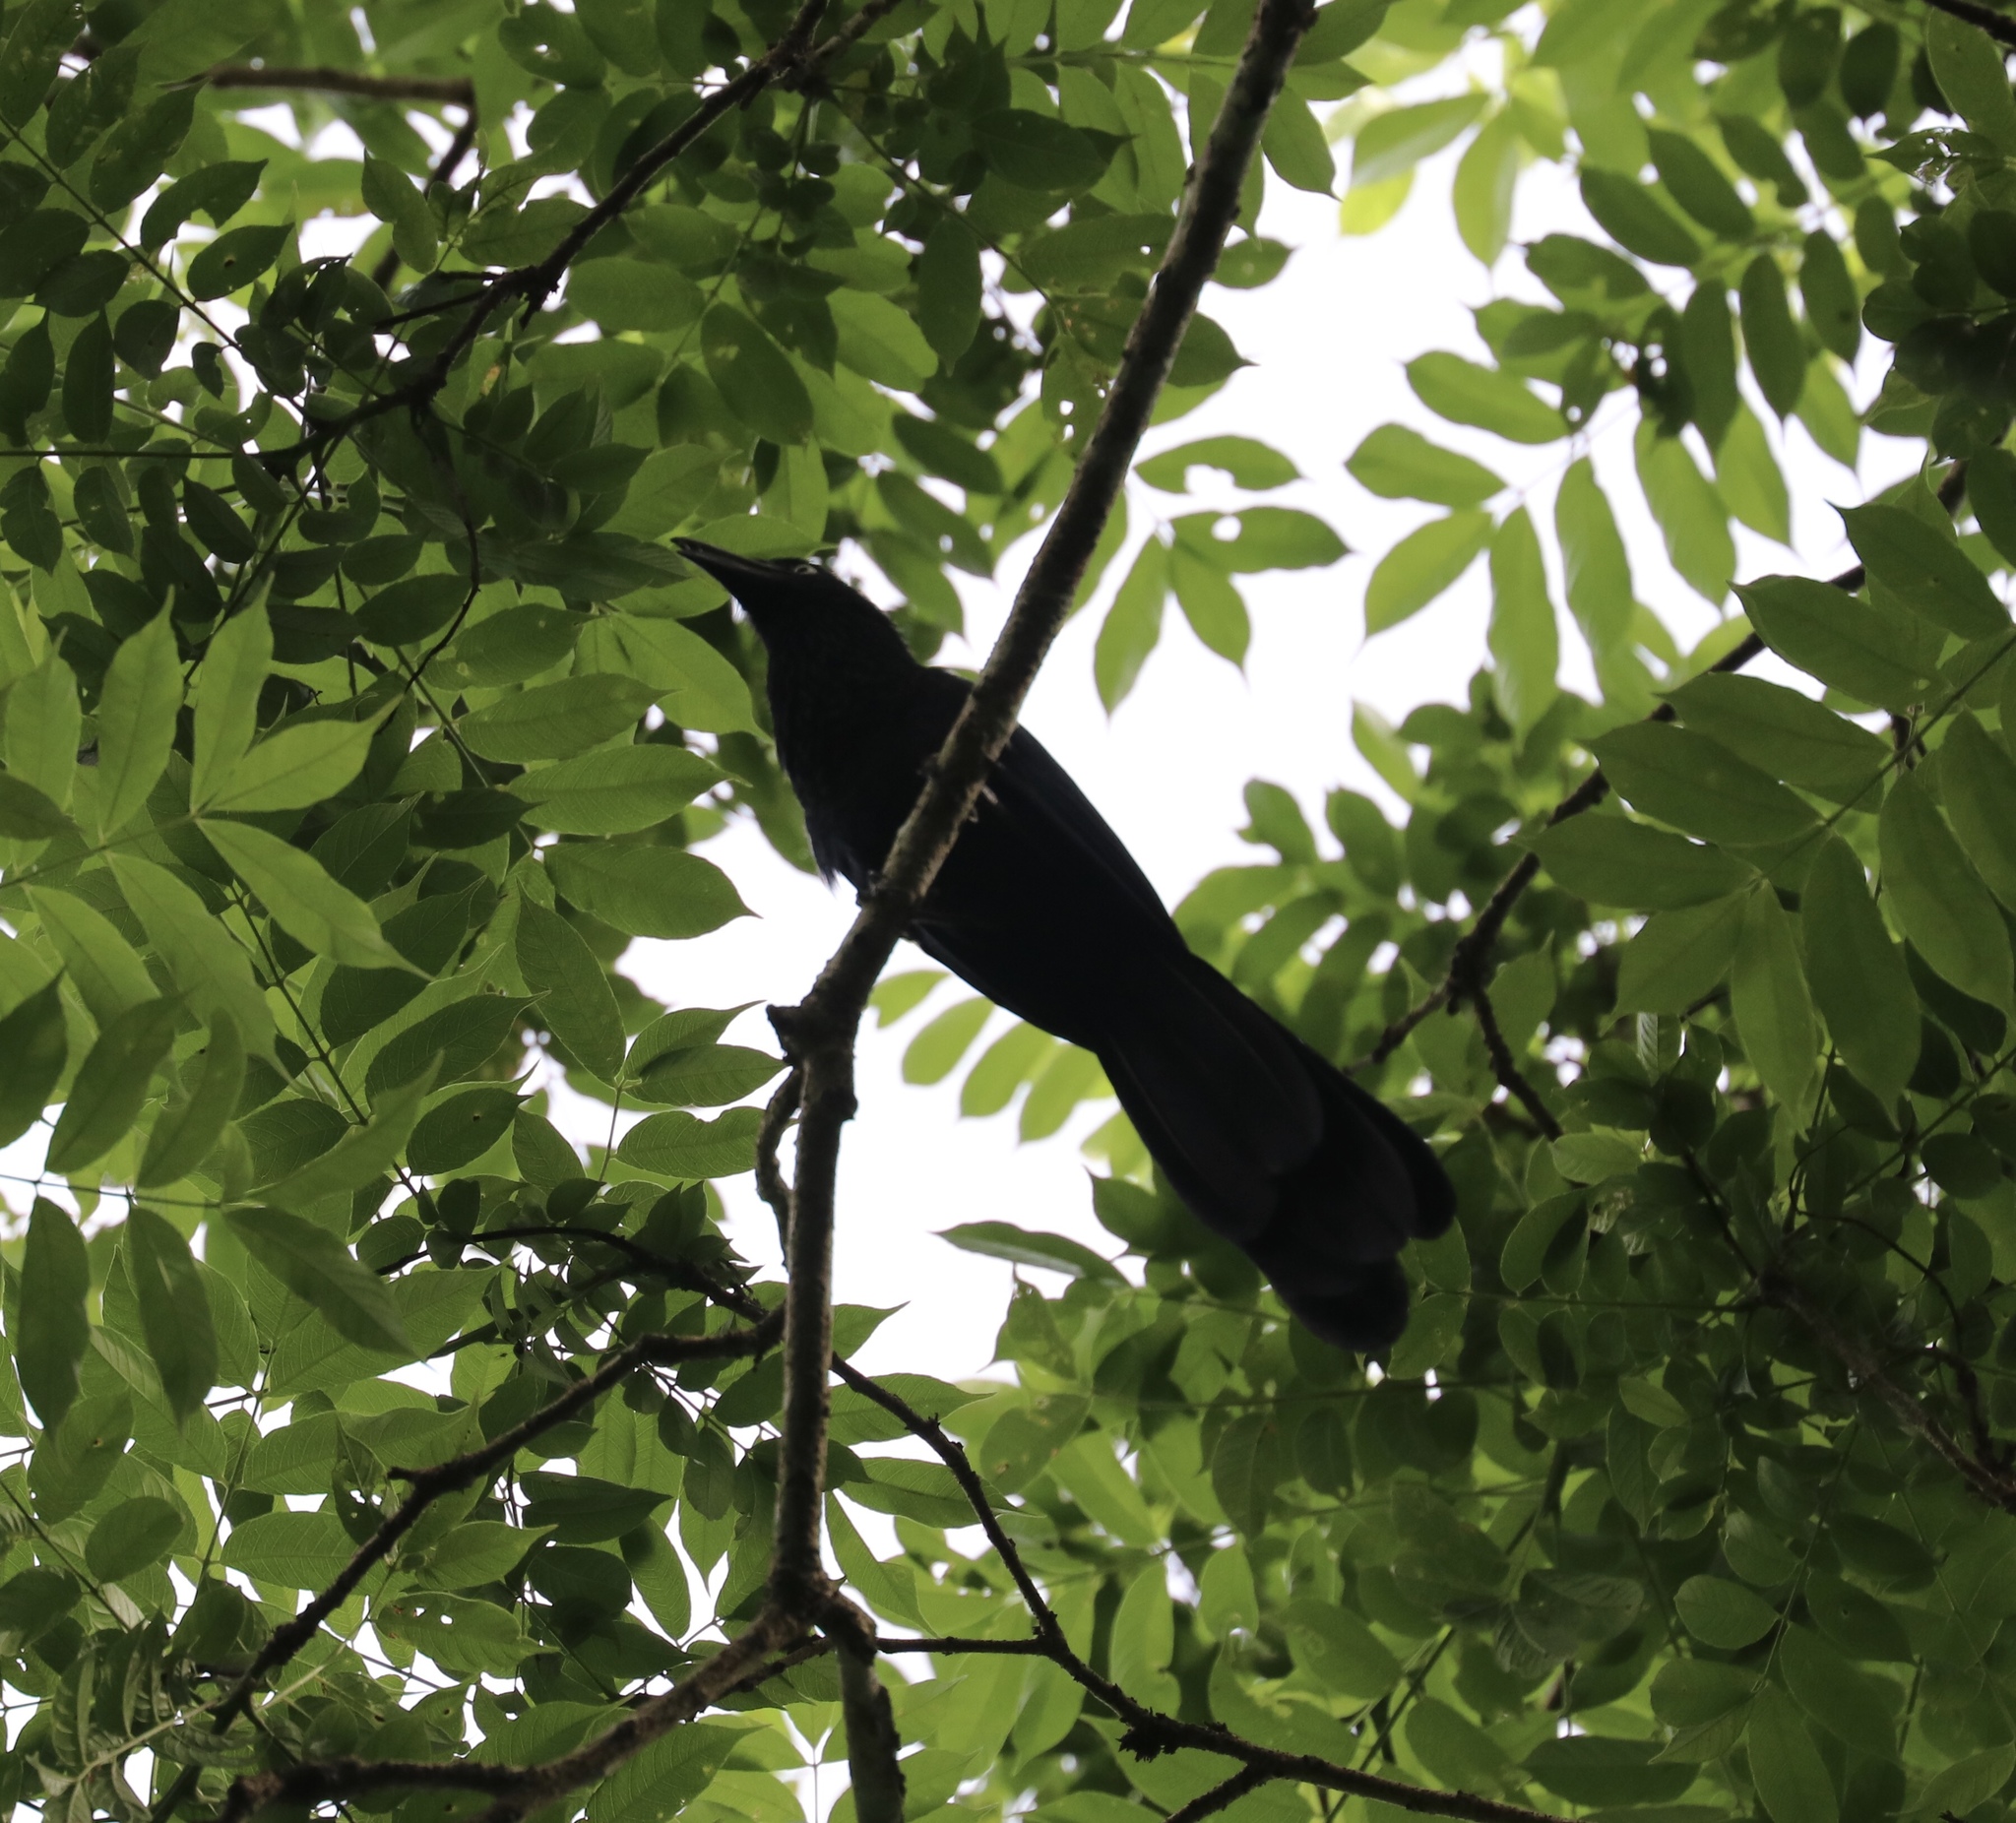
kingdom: Animalia
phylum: Chordata
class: Aves
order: Cuculiformes
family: Cuculidae
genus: Crotophaga
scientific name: Crotophaga major
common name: Greater ani
